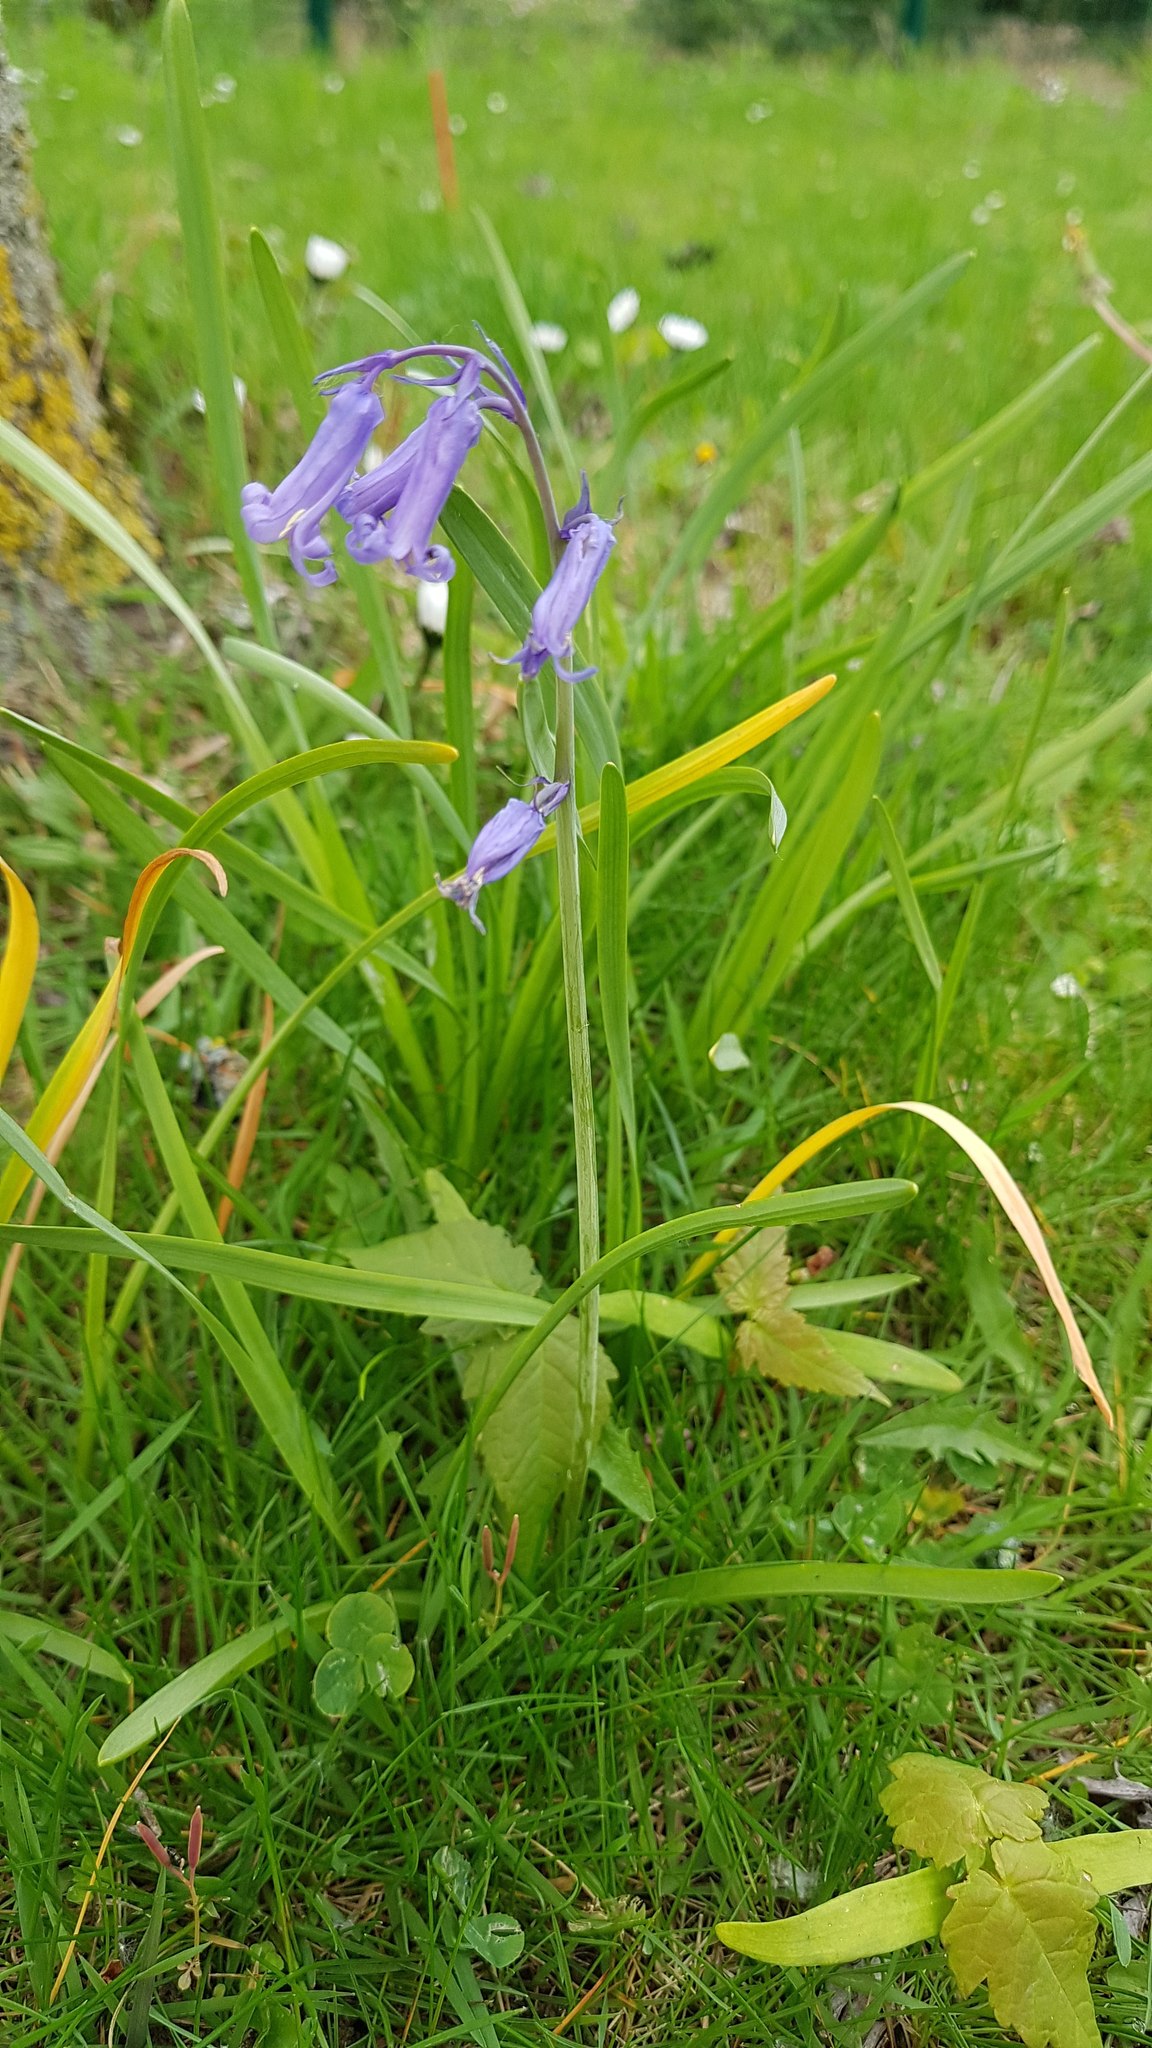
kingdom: Plantae
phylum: Tracheophyta
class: Liliopsida
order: Asparagales
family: Asparagaceae
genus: Hyacinthoides
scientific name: Hyacinthoides non-scripta
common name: Bluebell
